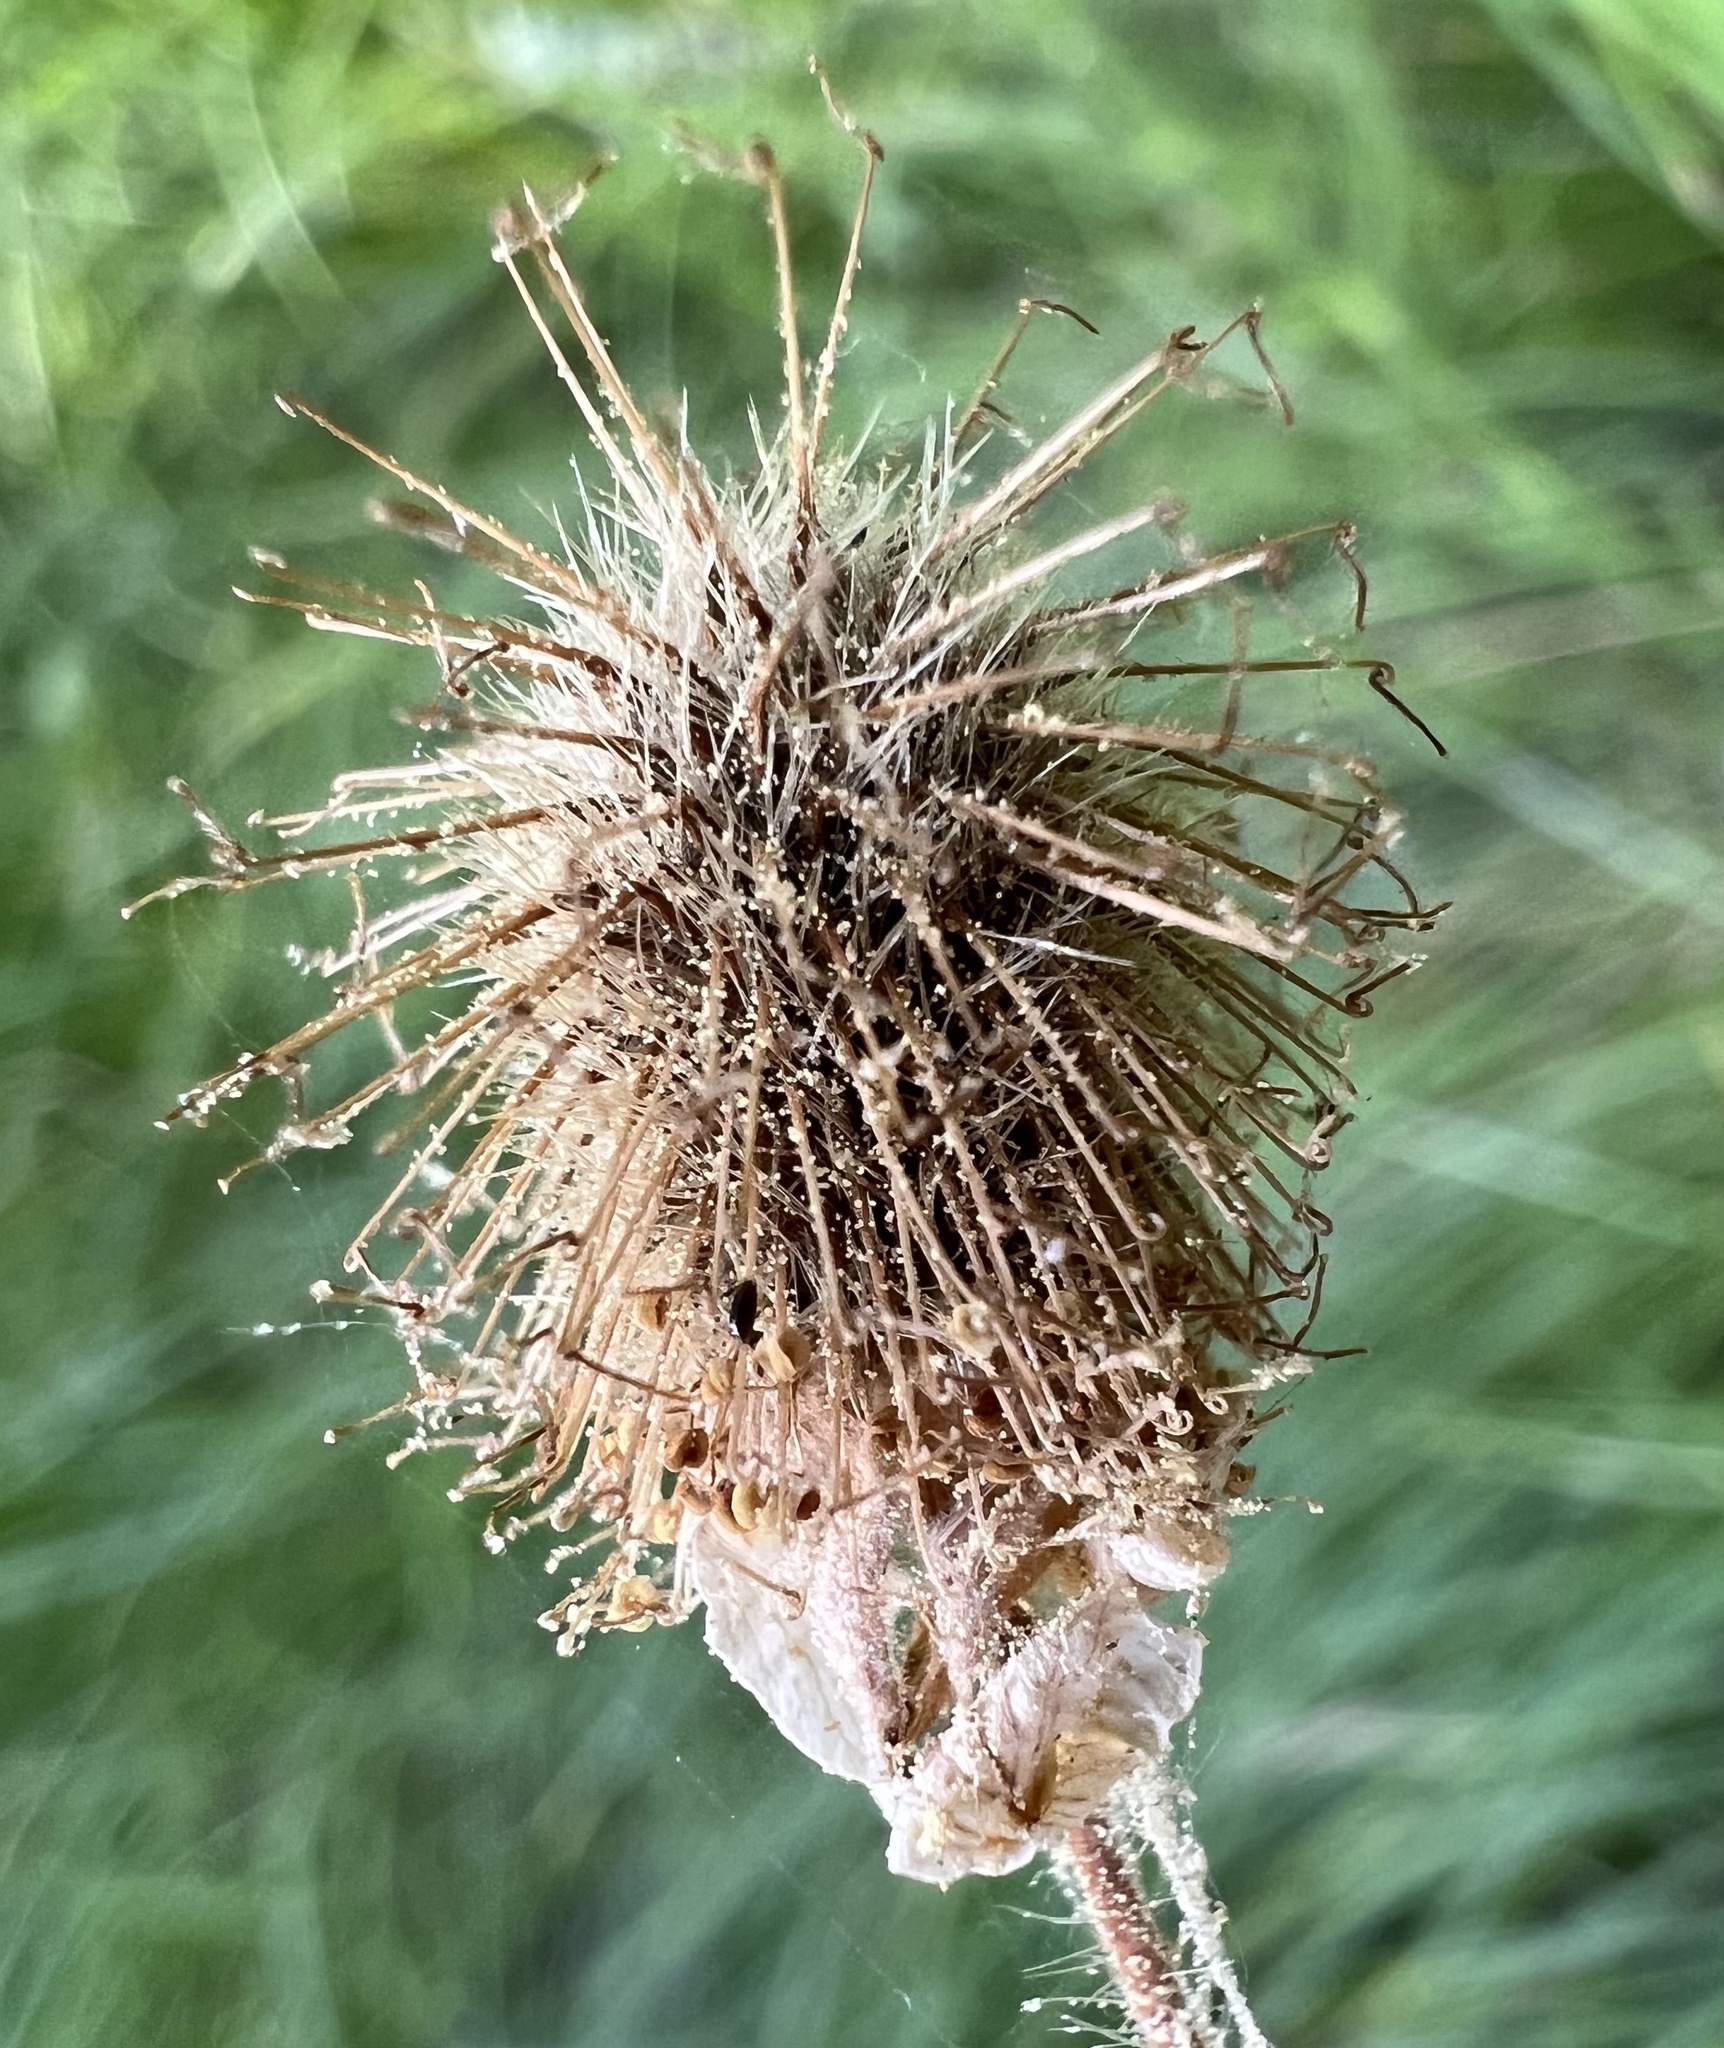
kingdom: Plantae
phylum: Tracheophyta
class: Magnoliopsida
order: Rosales
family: Rosaceae
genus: Geum
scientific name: Geum macrophyllum
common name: Large-leaved avens
